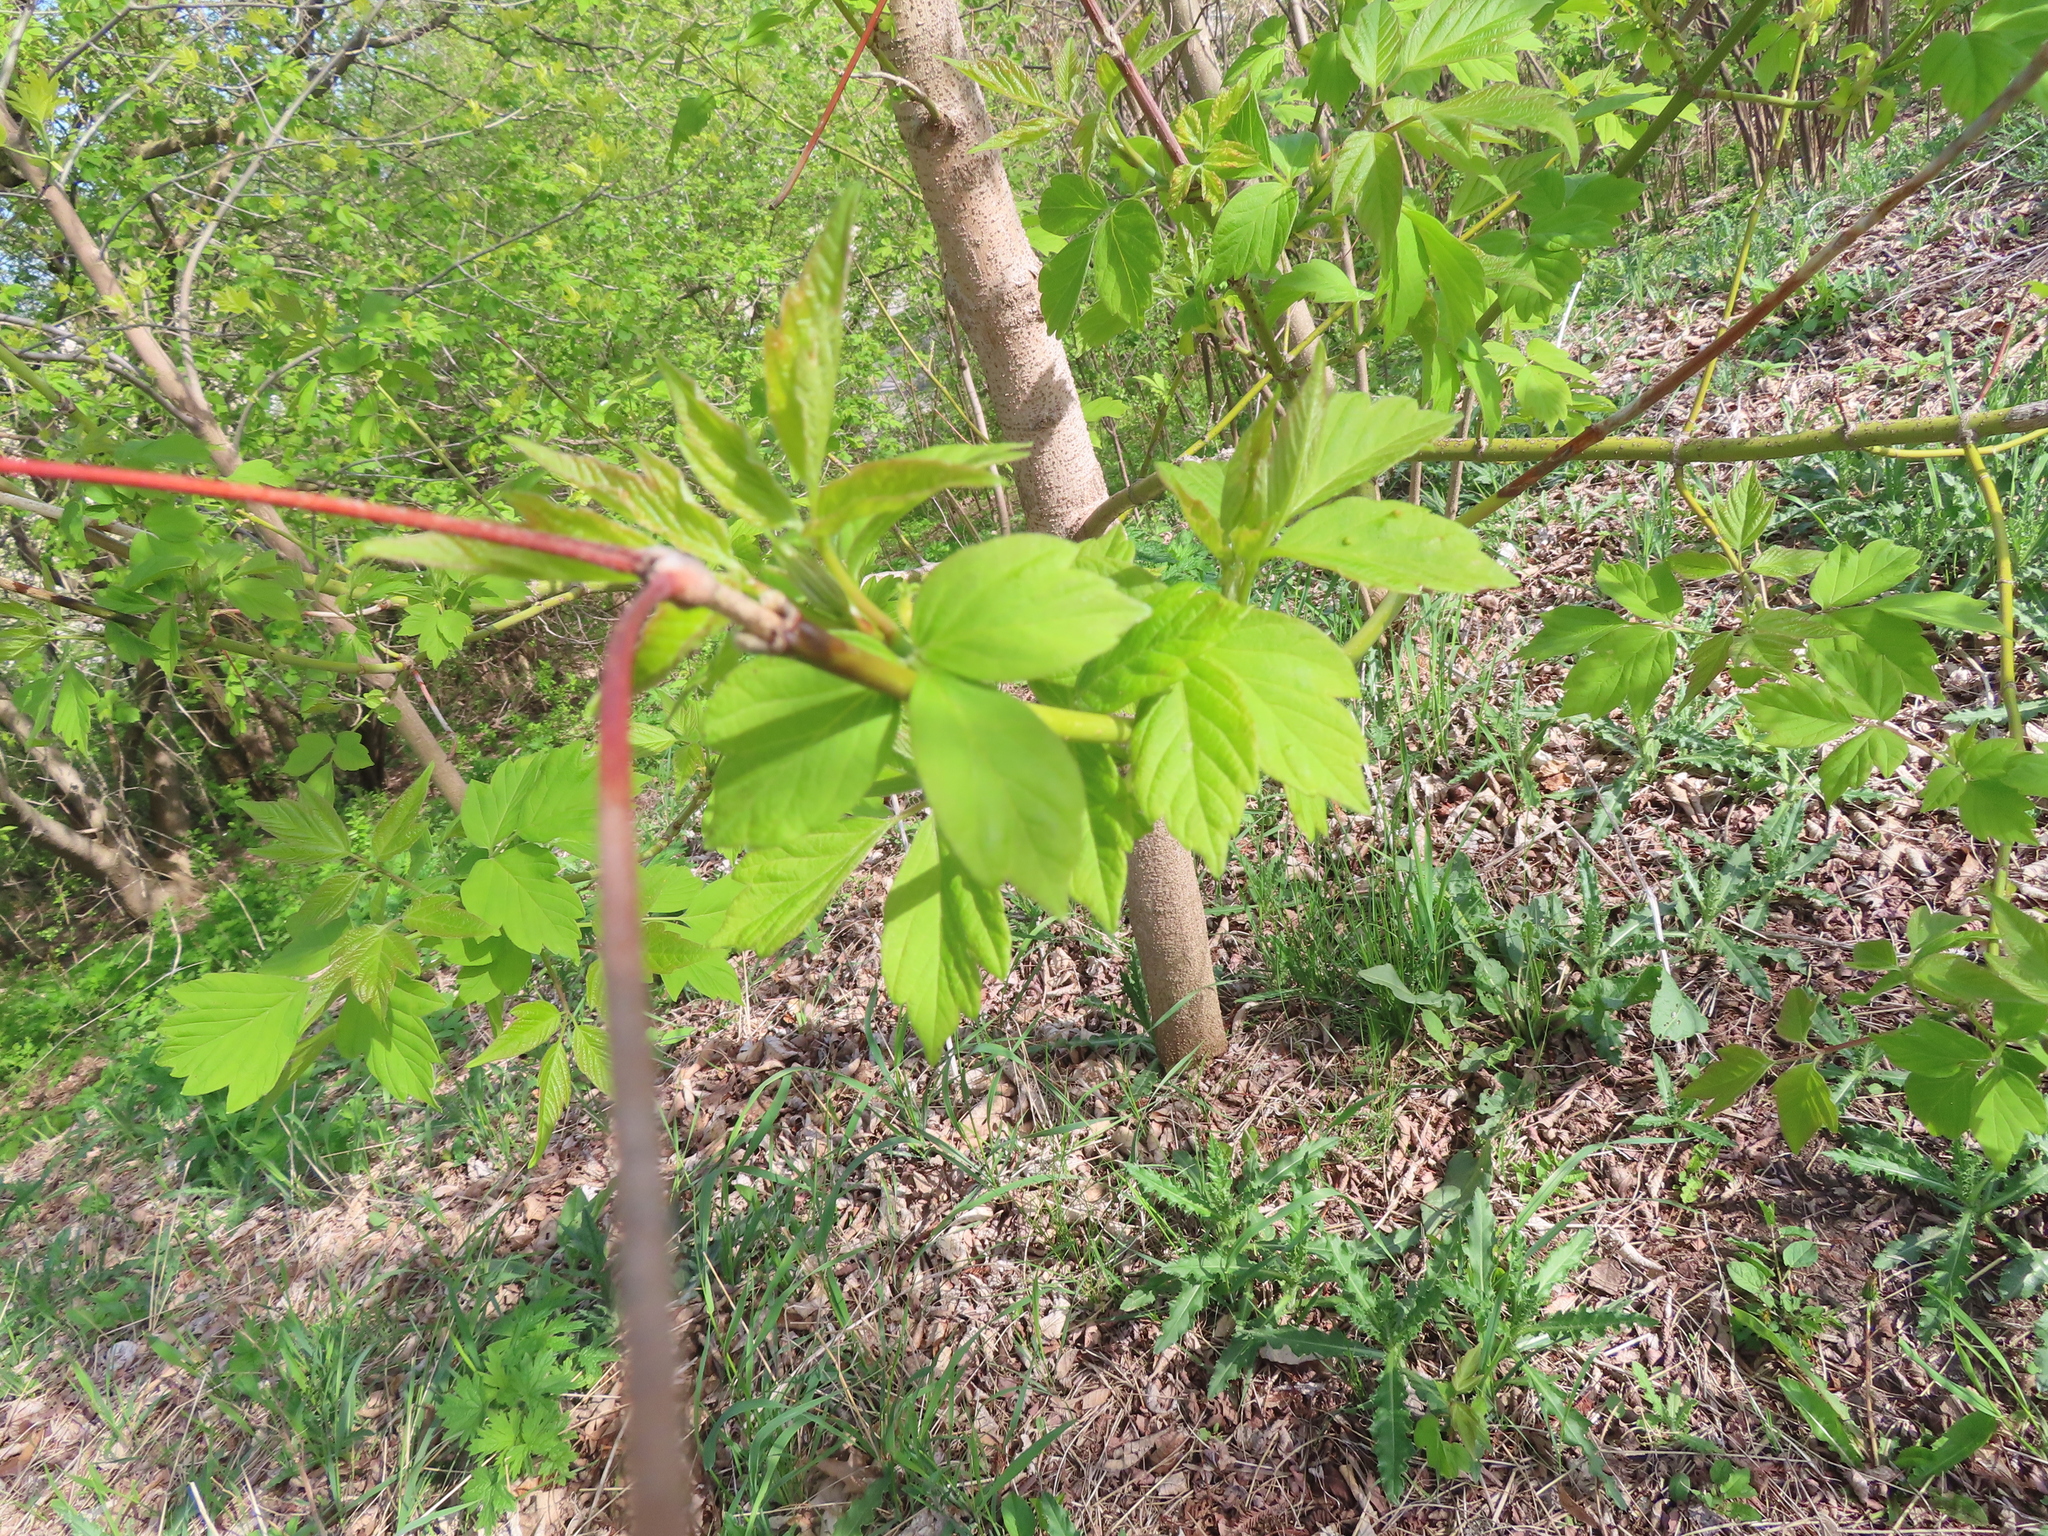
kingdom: Plantae
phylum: Tracheophyta
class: Magnoliopsida
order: Sapindales
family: Sapindaceae
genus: Acer
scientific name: Acer negundo
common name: Ashleaf maple
